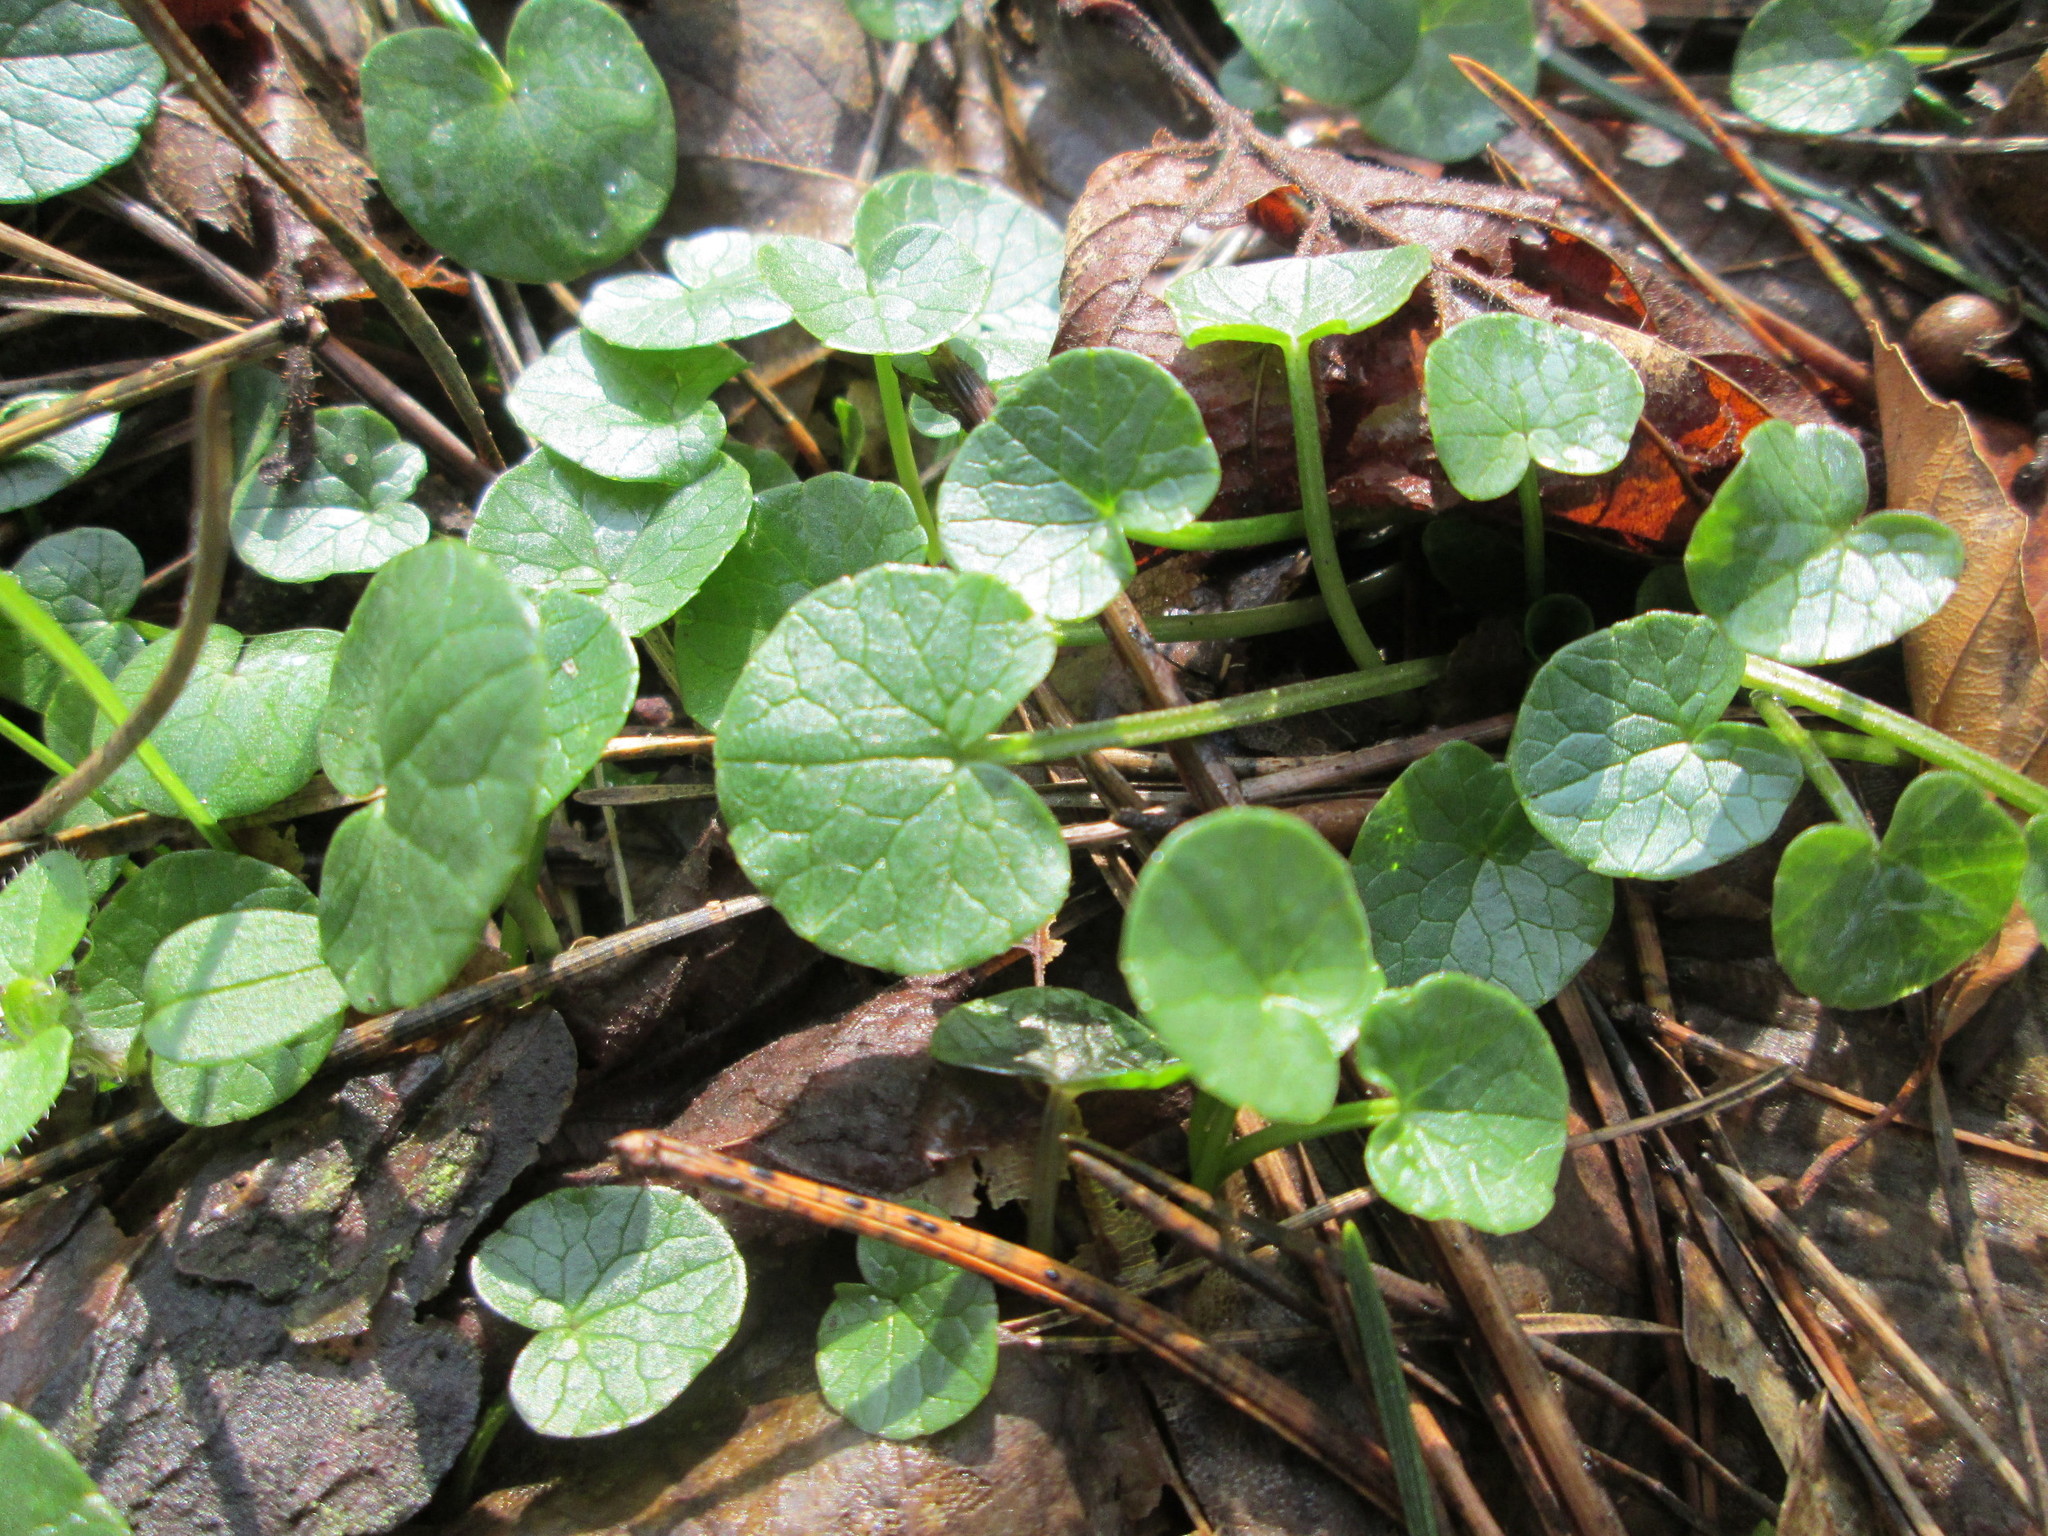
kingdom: Plantae
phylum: Tracheophyta
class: Magnoliopsida
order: Ranunculales
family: Ranunculaceae
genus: Ficaria
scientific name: Ficaria verna
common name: Lesser celandine
